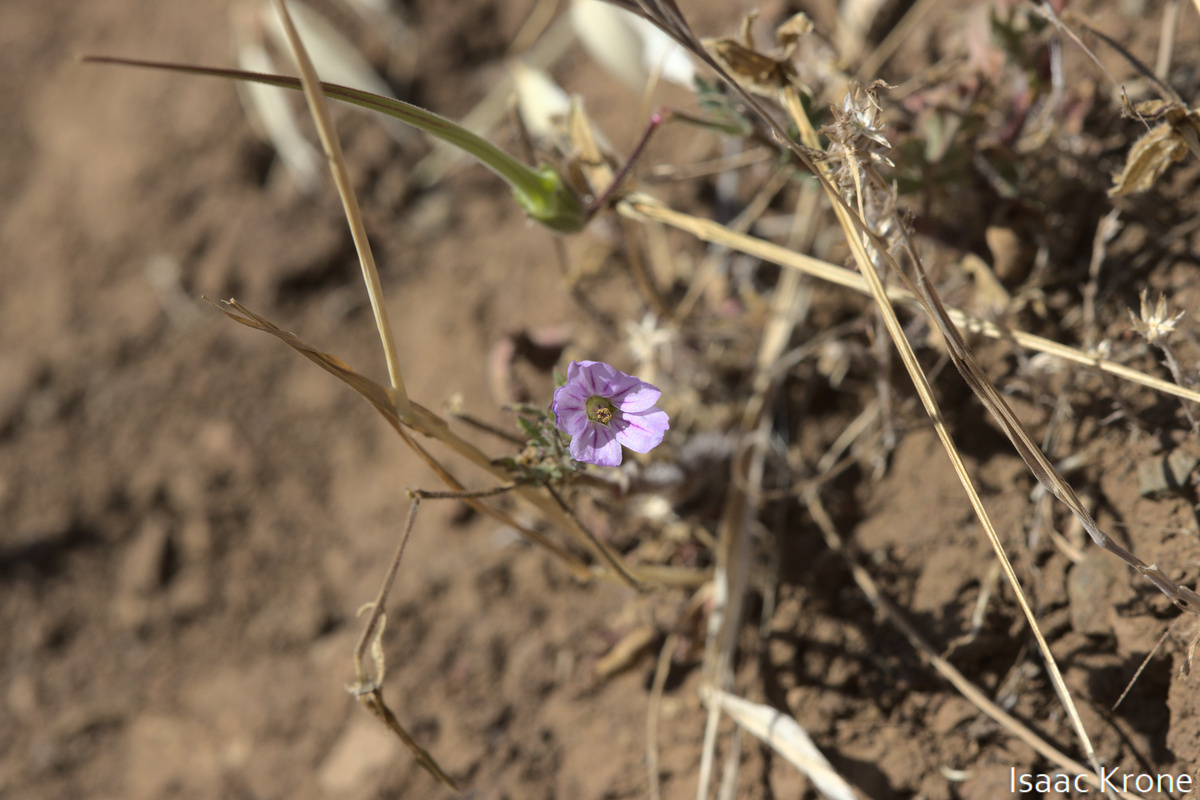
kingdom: Plantae
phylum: Tracheophyta
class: Magnoliopsida
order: Geraniales
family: Geraniaceae
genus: Erodium
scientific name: Erodium botrys
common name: Mediterranean stork's-bill
